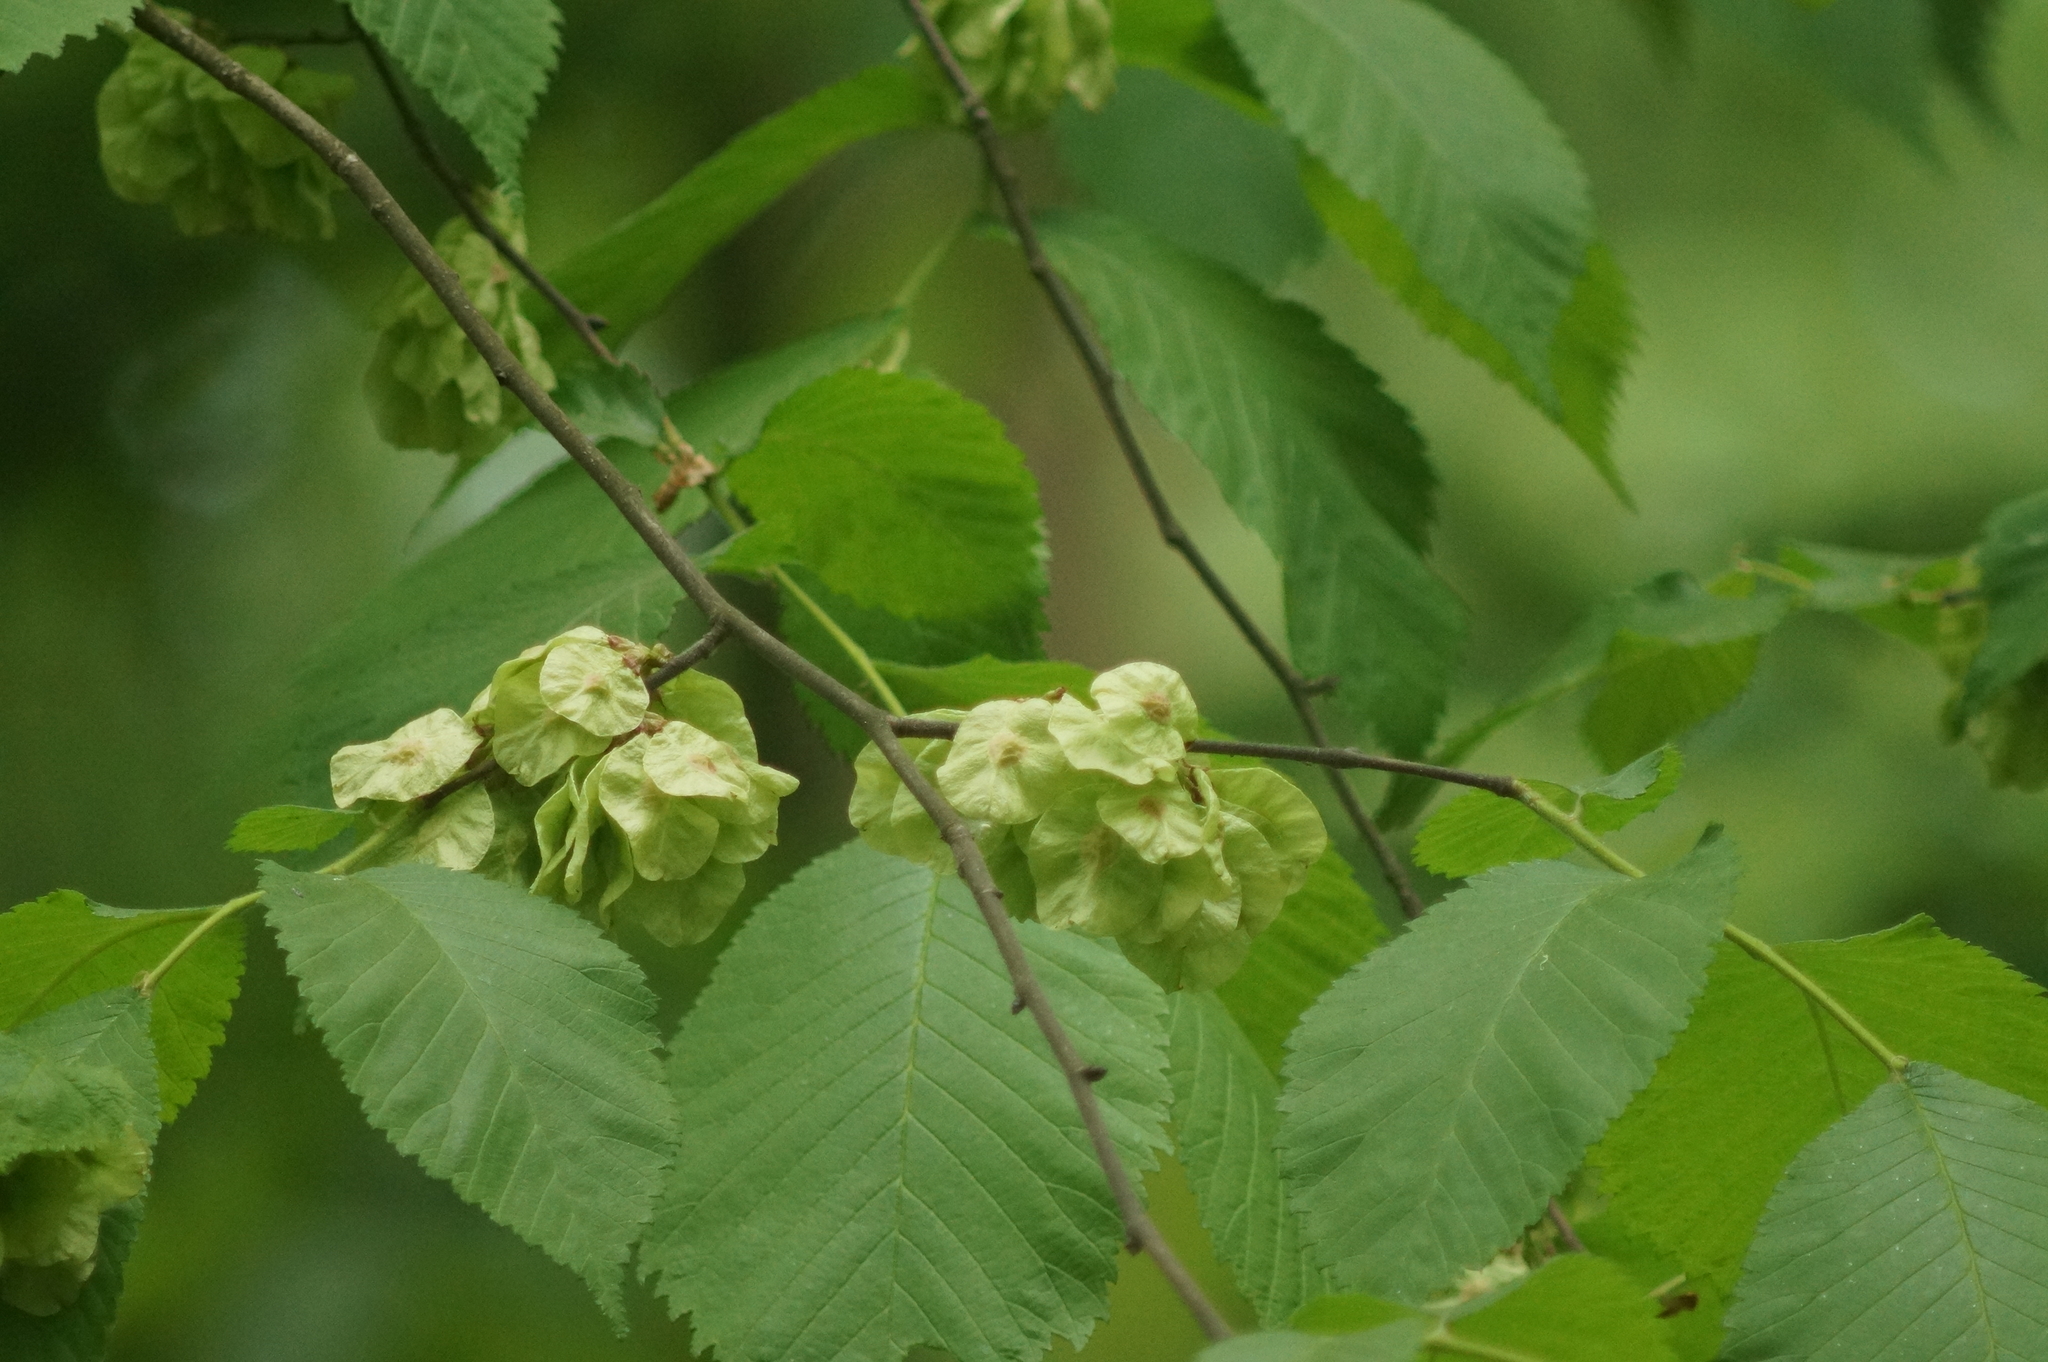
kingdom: Plantae
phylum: Tracheophyta
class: Magnoliopsida
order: Rosales
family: Ulmaceae
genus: Ulmus
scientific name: Ulmus glabra
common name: Wych elm
